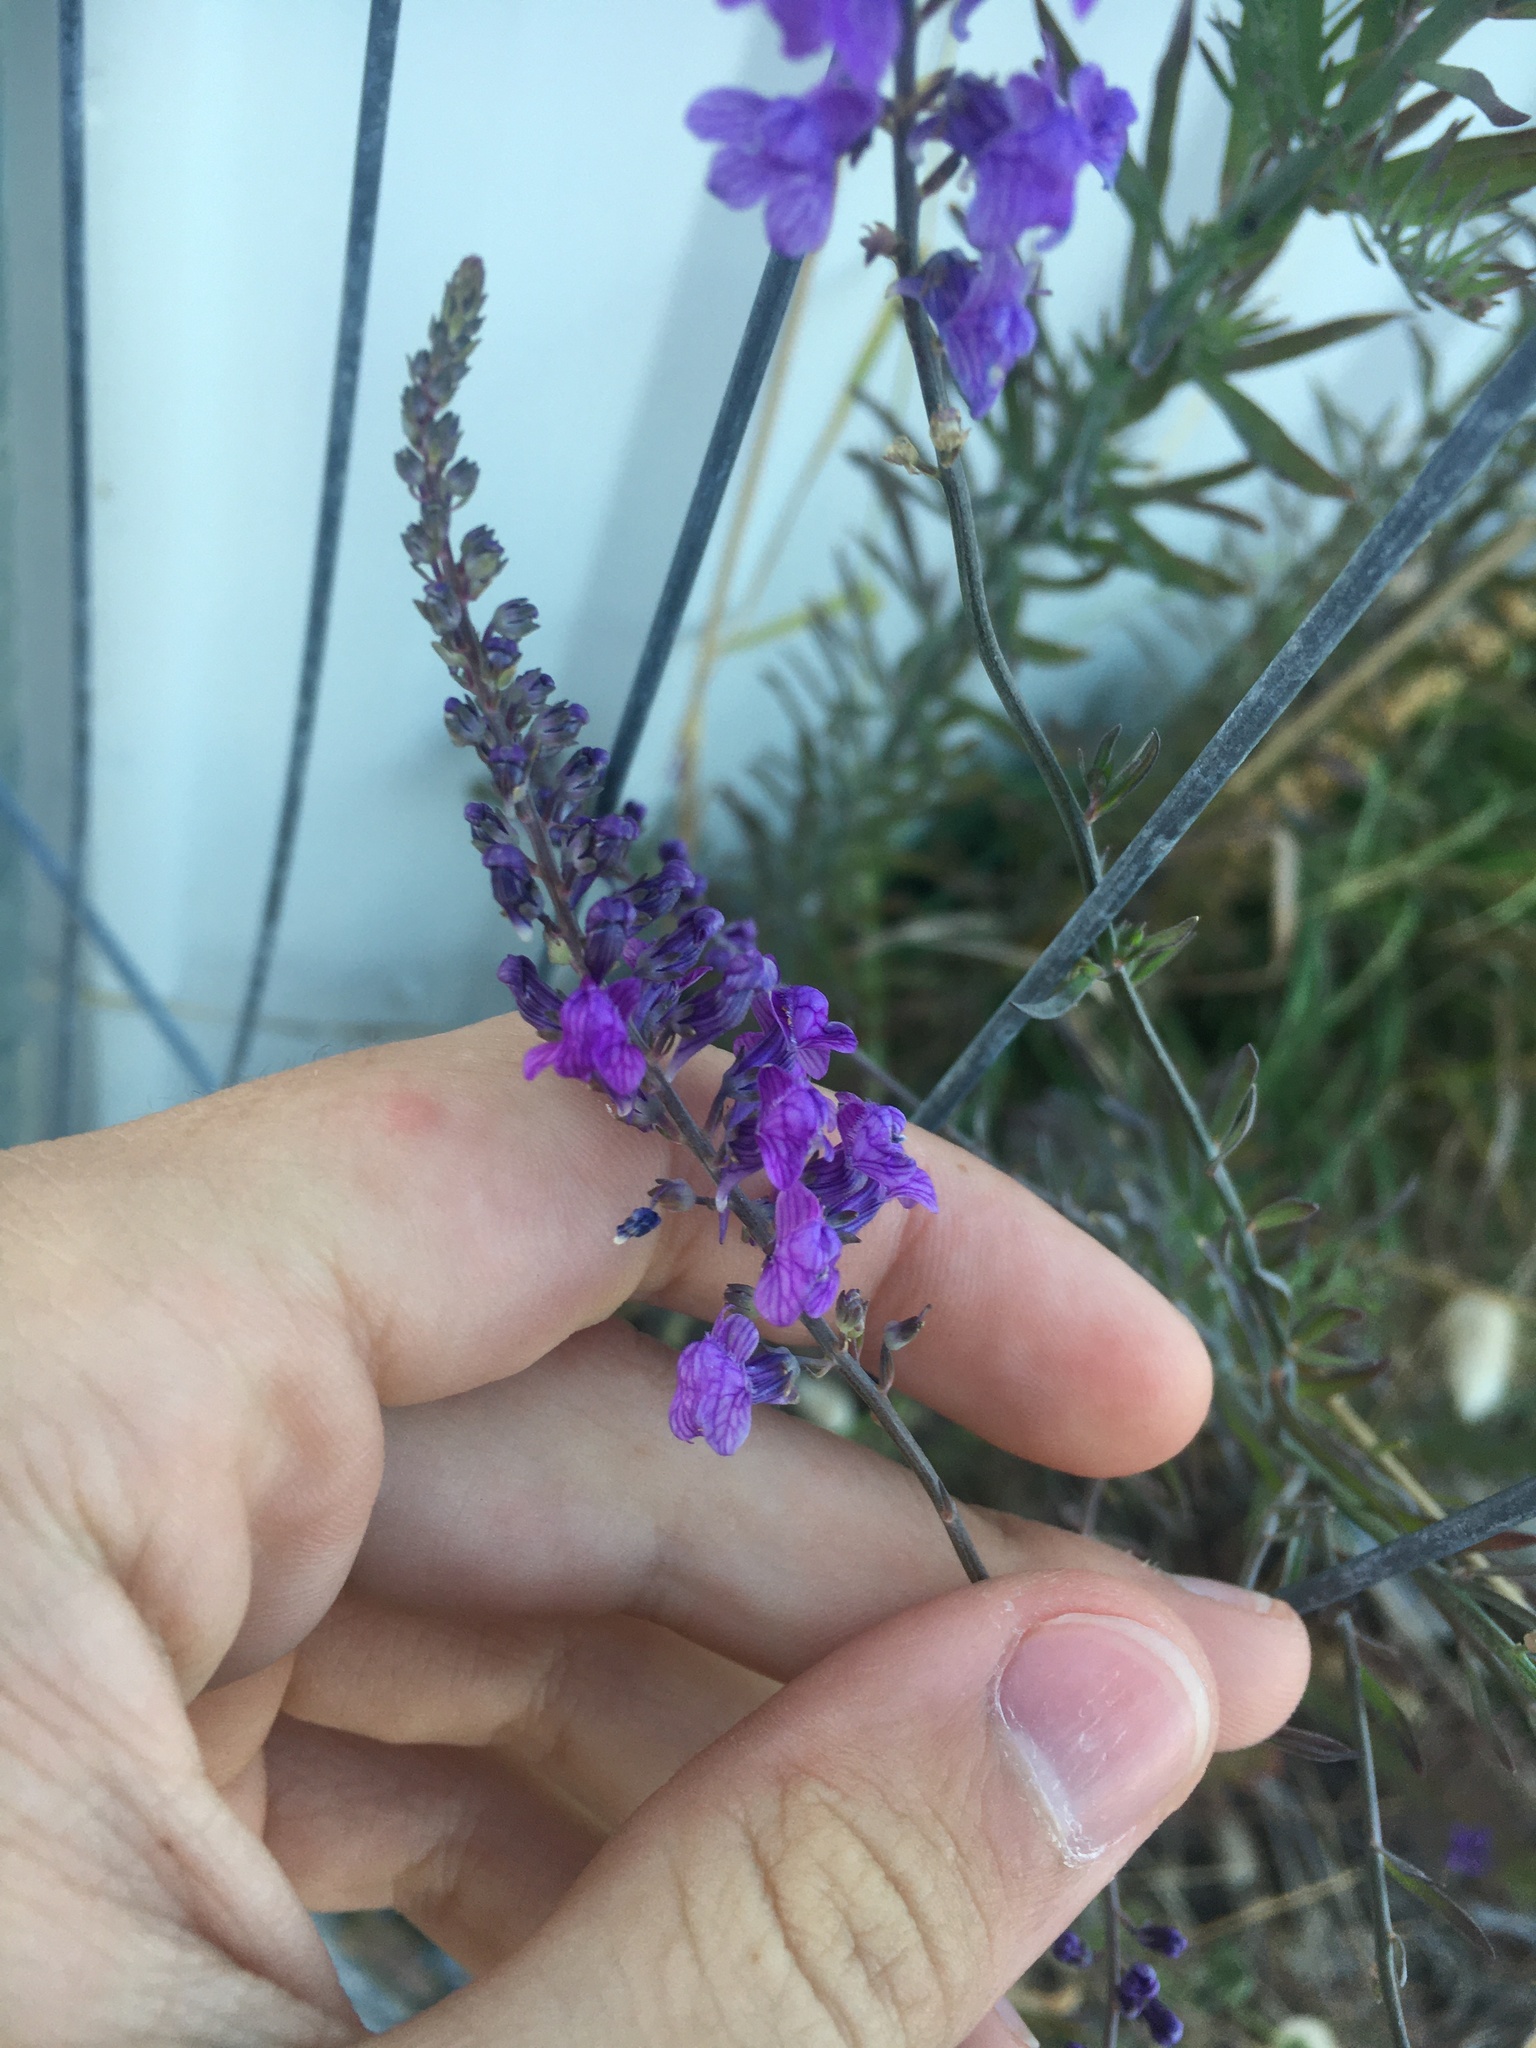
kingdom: Plantae
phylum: Tracheophyta
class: Magnoliopsida
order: Lamiales
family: Plantaginaceae
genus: Linaria
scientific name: Linaria purpurea
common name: Purple toadflax
